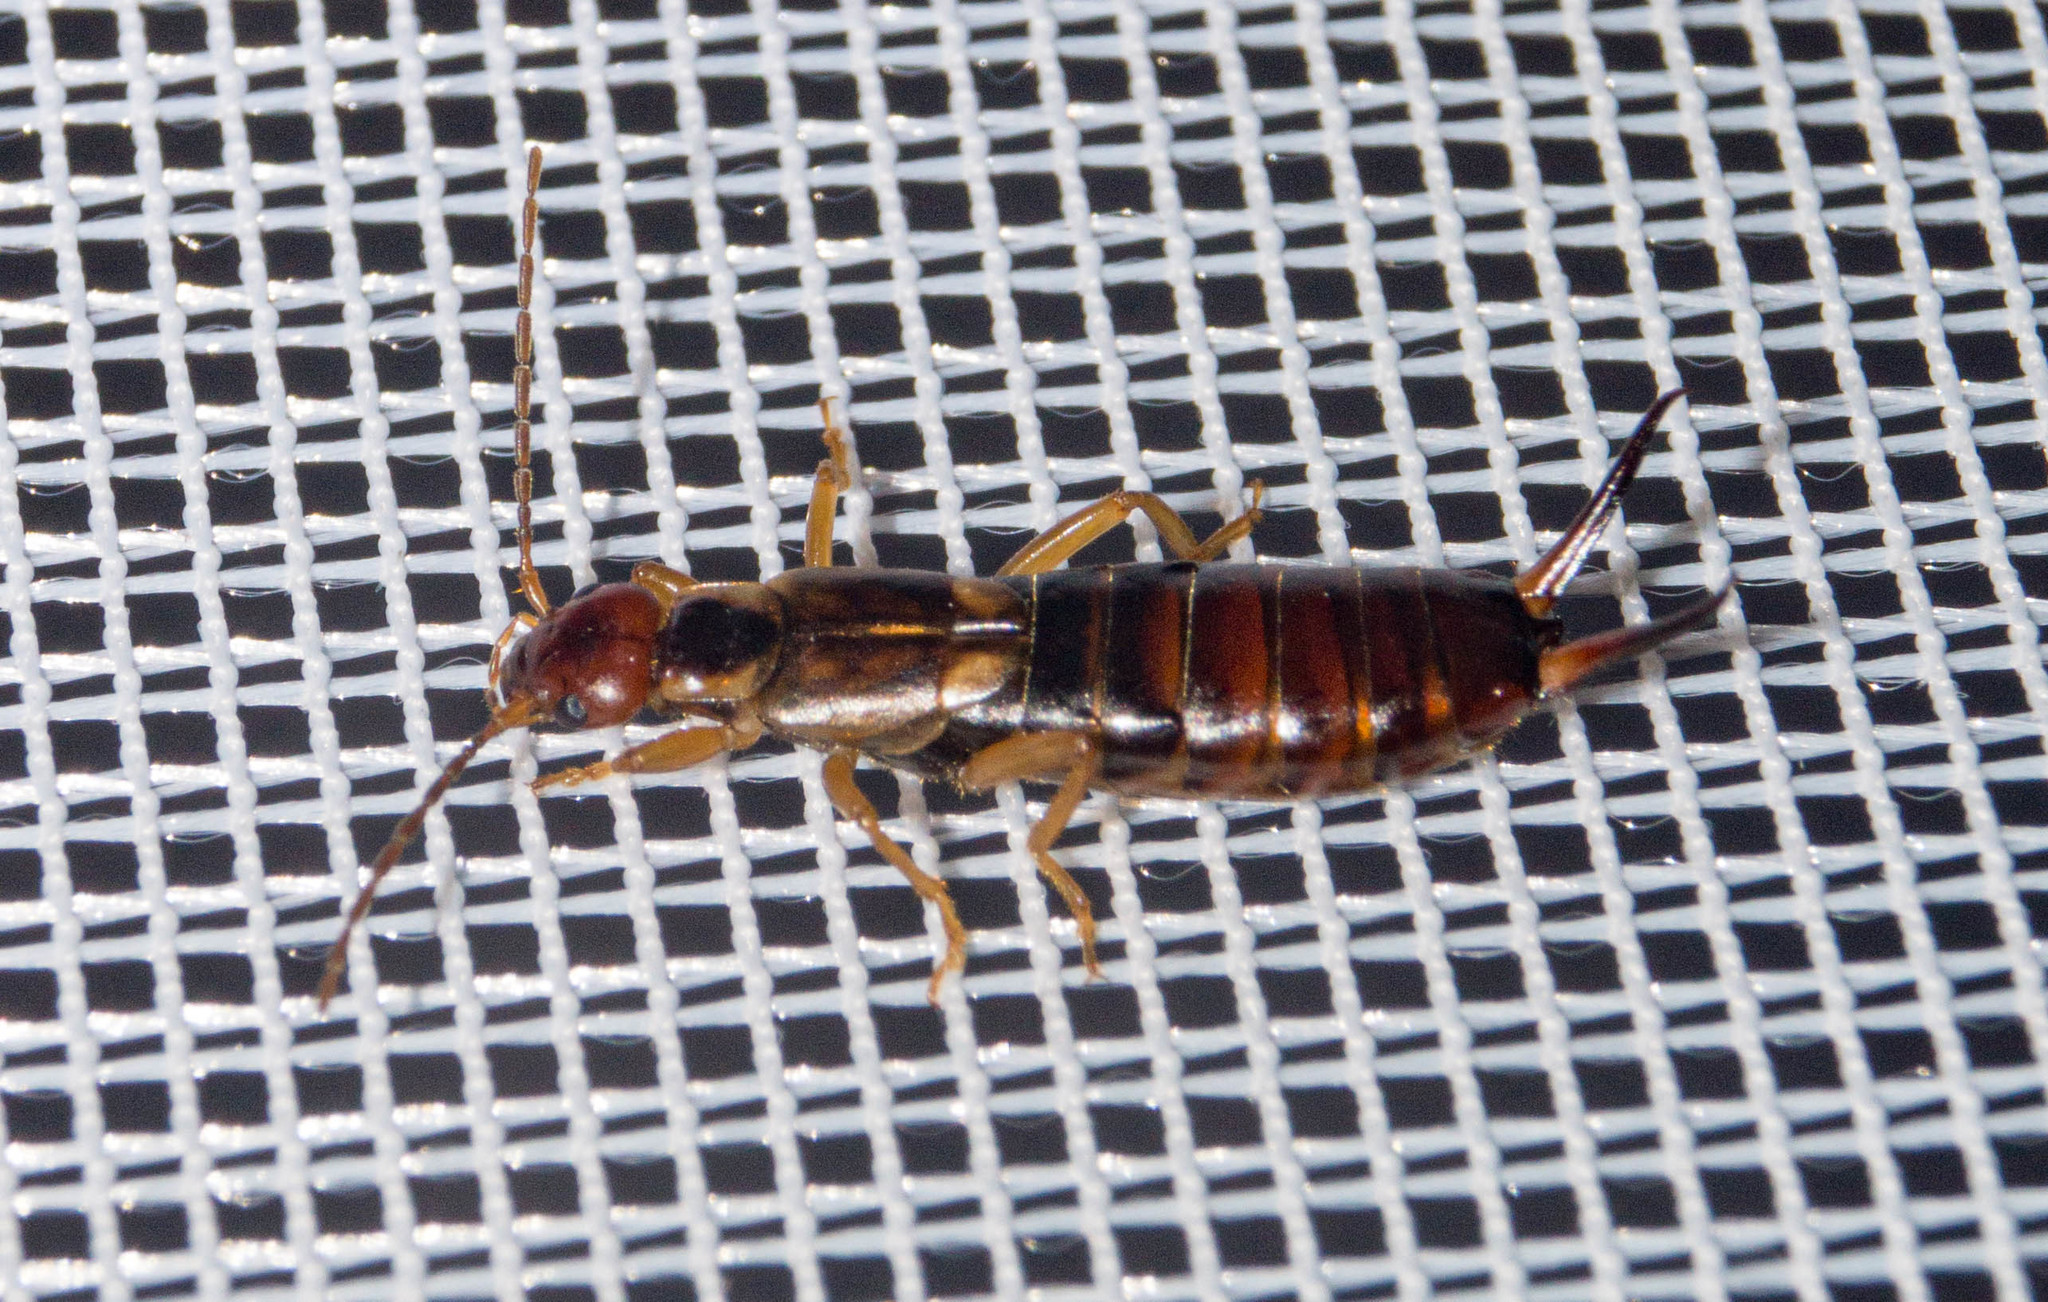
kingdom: Animalia
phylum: Arthropoda
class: Insecta
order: Dermaptera
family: Forficulidae
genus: Forficula
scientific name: Forficula
